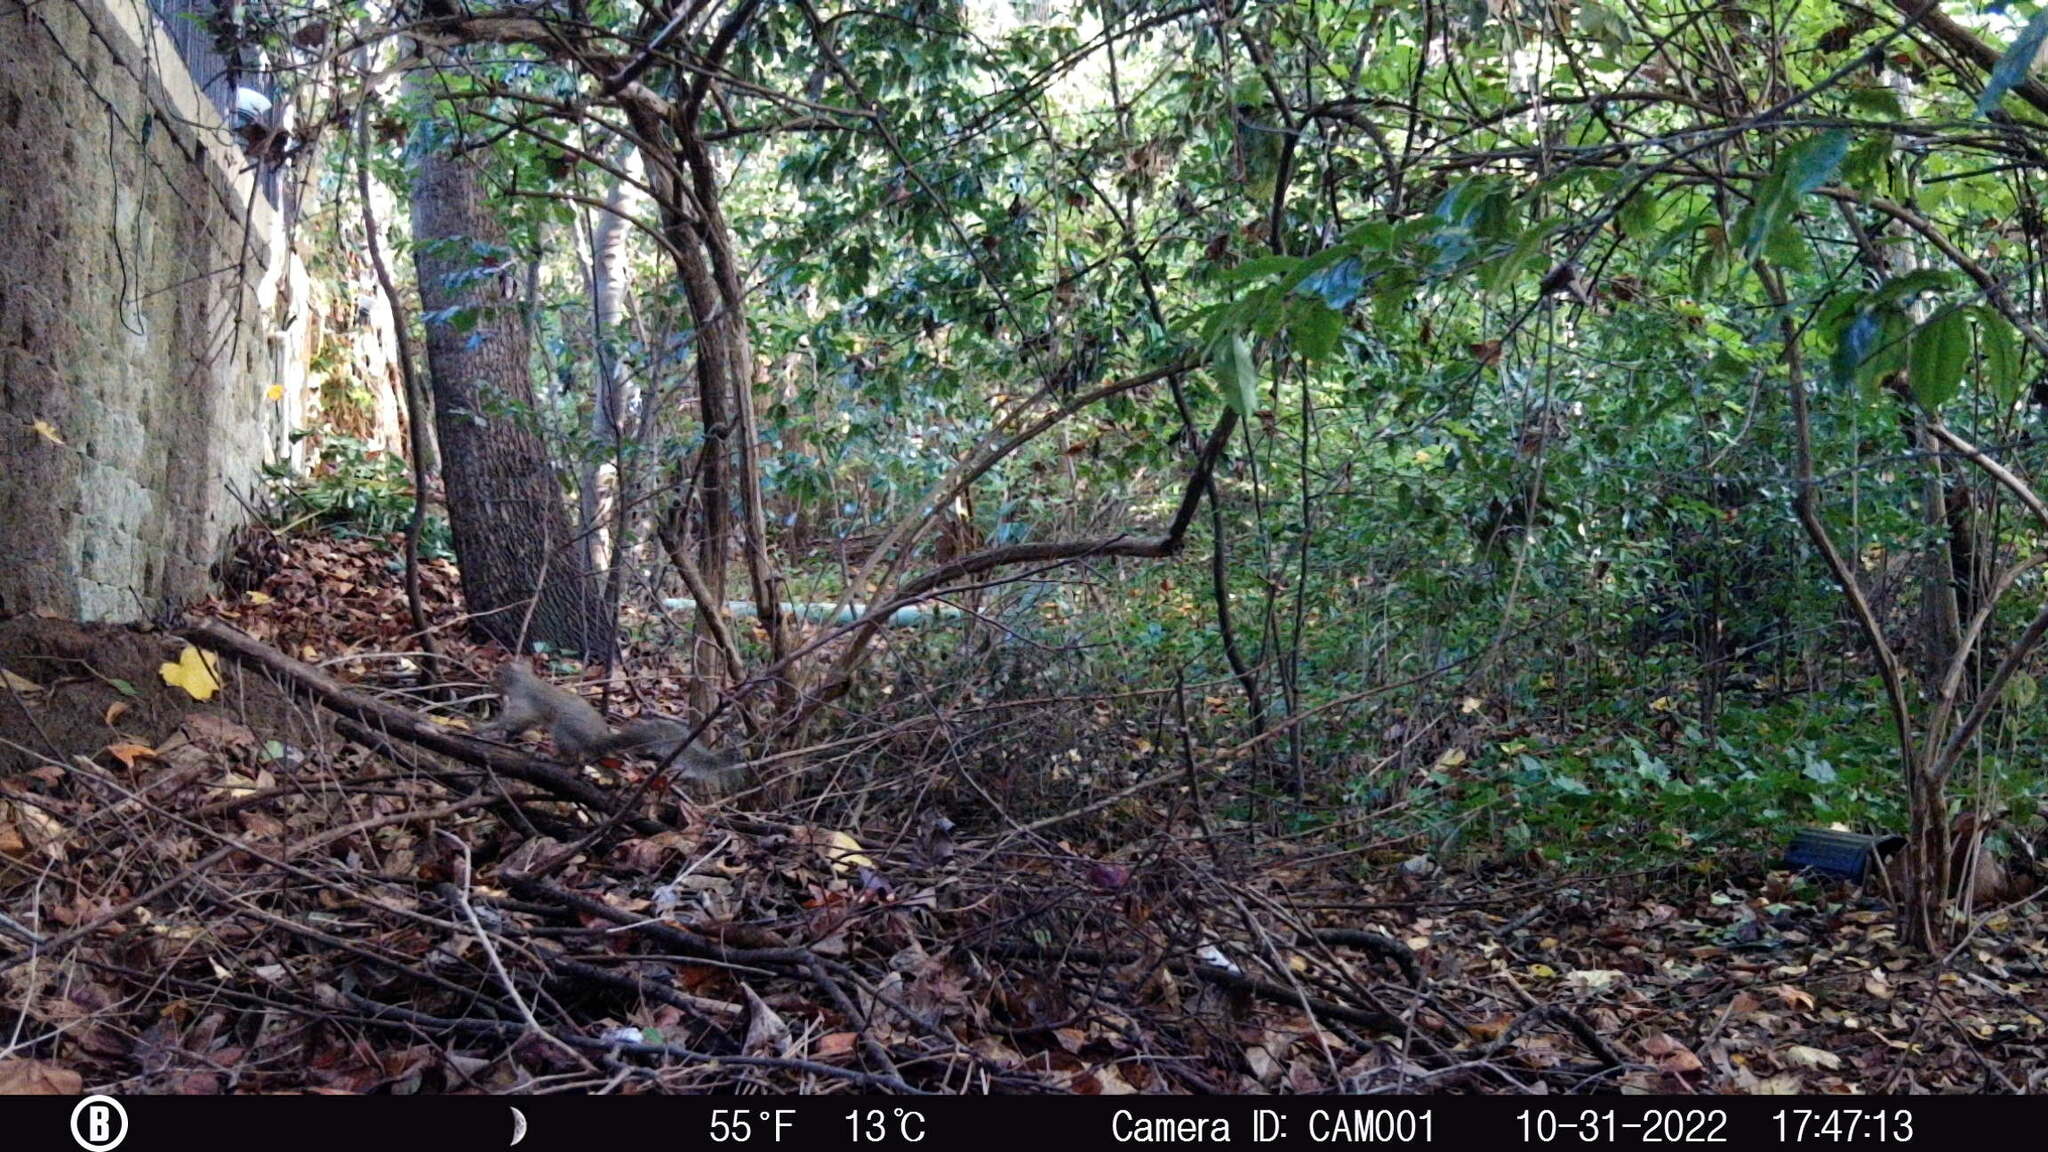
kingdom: Animalia
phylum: Chordata
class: Mammalia
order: Rodentia
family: Sciuridae
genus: Sciurus
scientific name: Sciurus carolinensis
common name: Eastern gray squirrel
